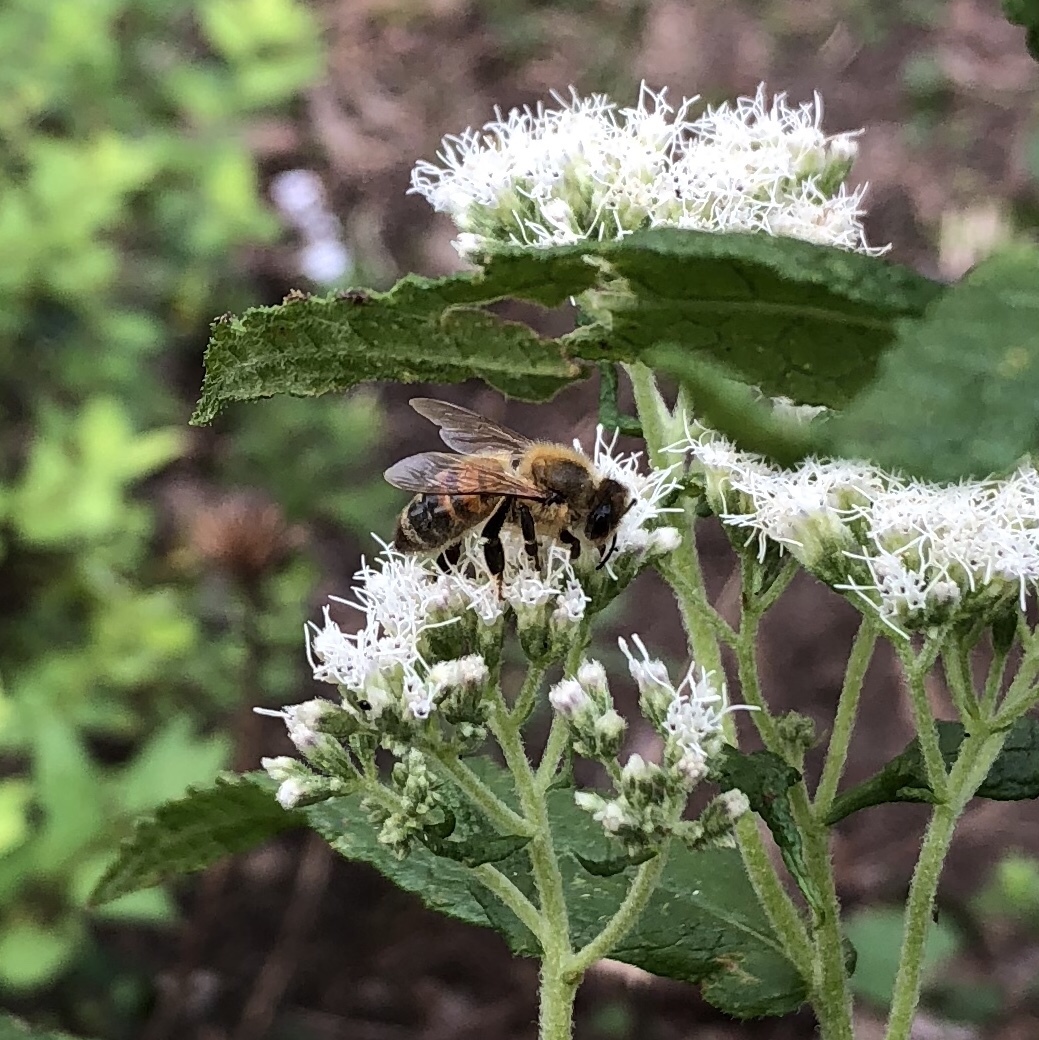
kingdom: Animalia
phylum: Arthropoda
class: Insecta
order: Hymenoptera
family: Apidae
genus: Apis
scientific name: Apis mellifera
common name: Honey bee
